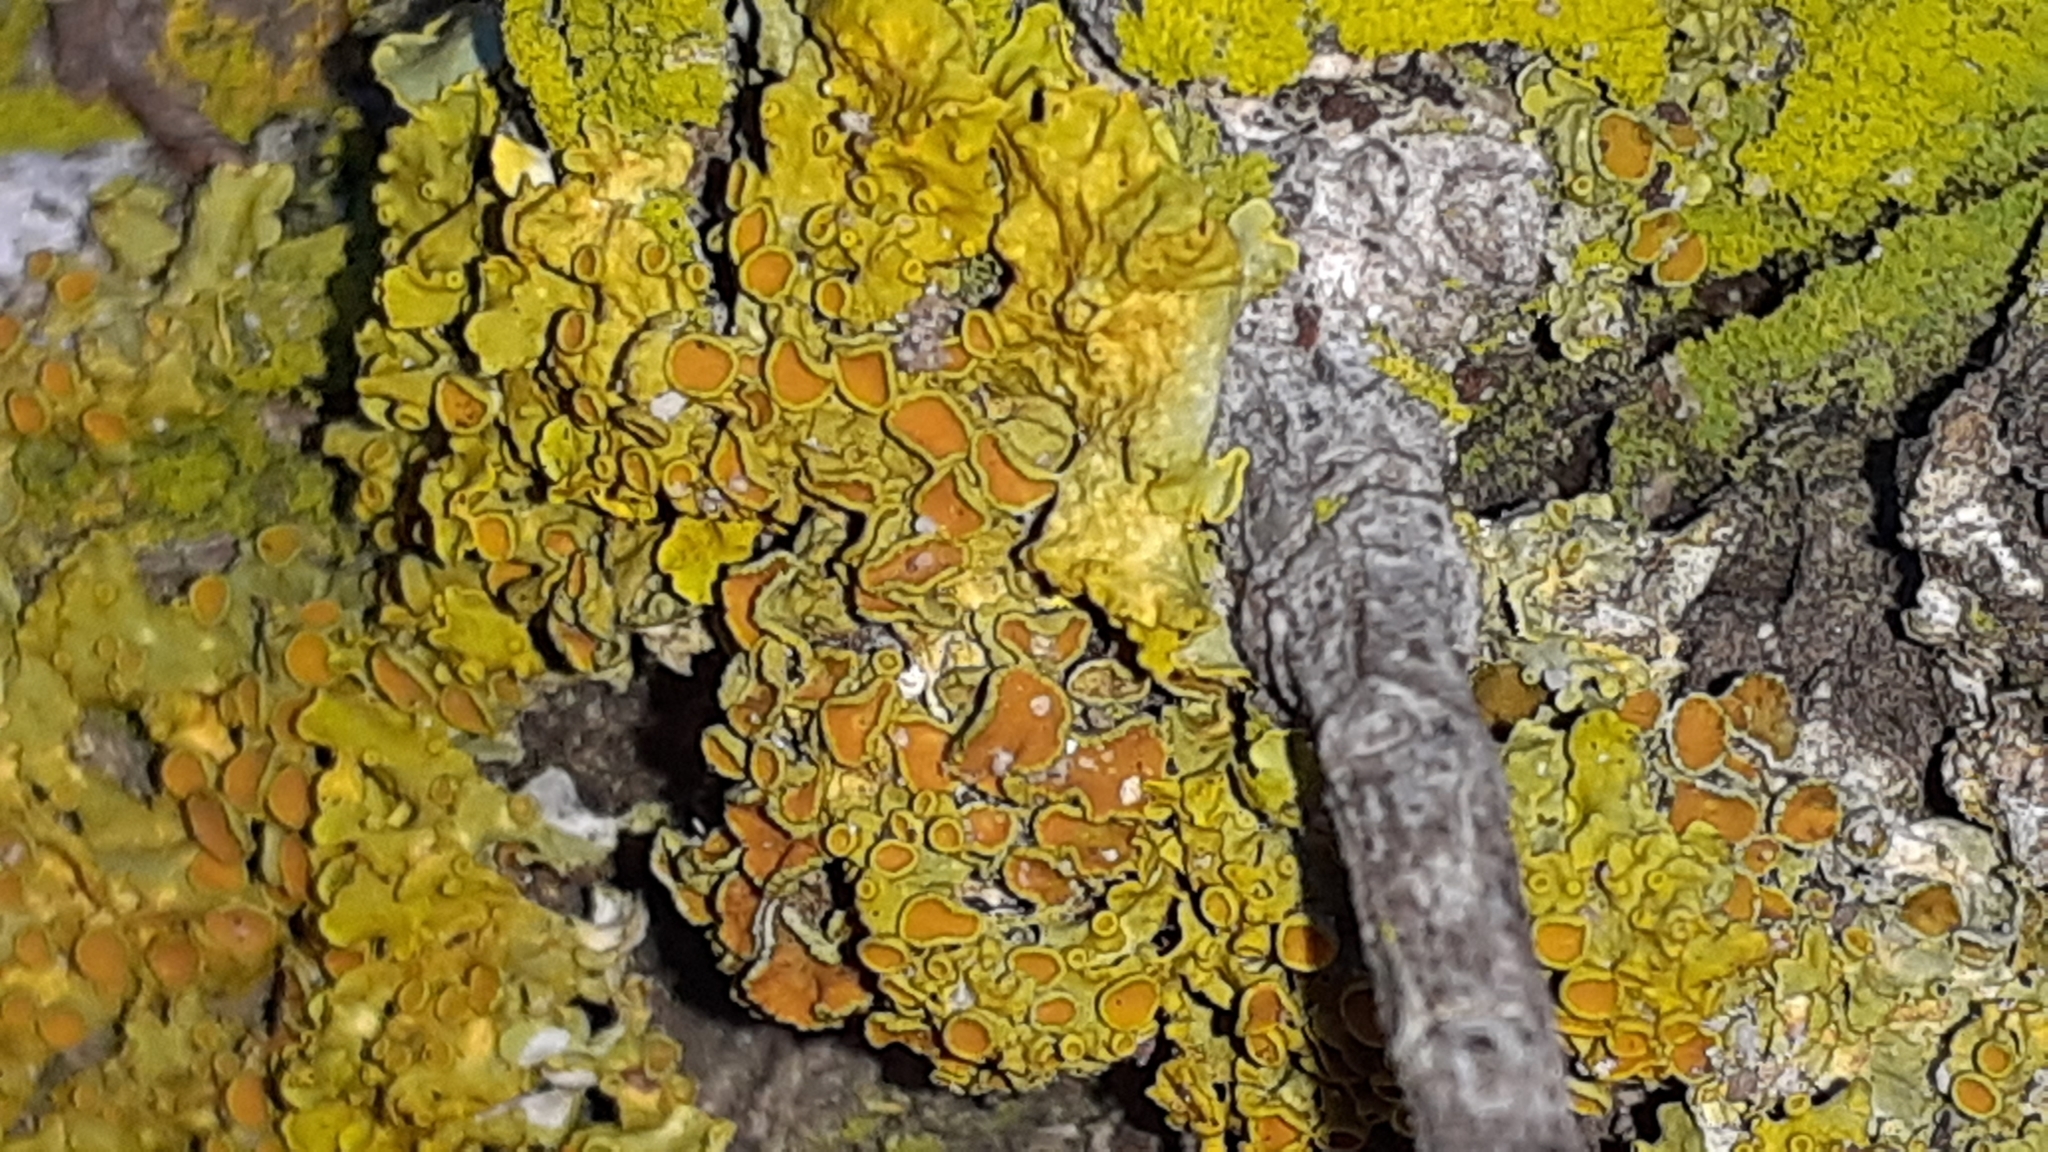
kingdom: Fungi
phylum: Ascomycota
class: Lecanoromycetes
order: Teloschistales
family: Teloschistaceae
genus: Xanthoria
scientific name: Xanthoria parietina
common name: Common orange lichen
